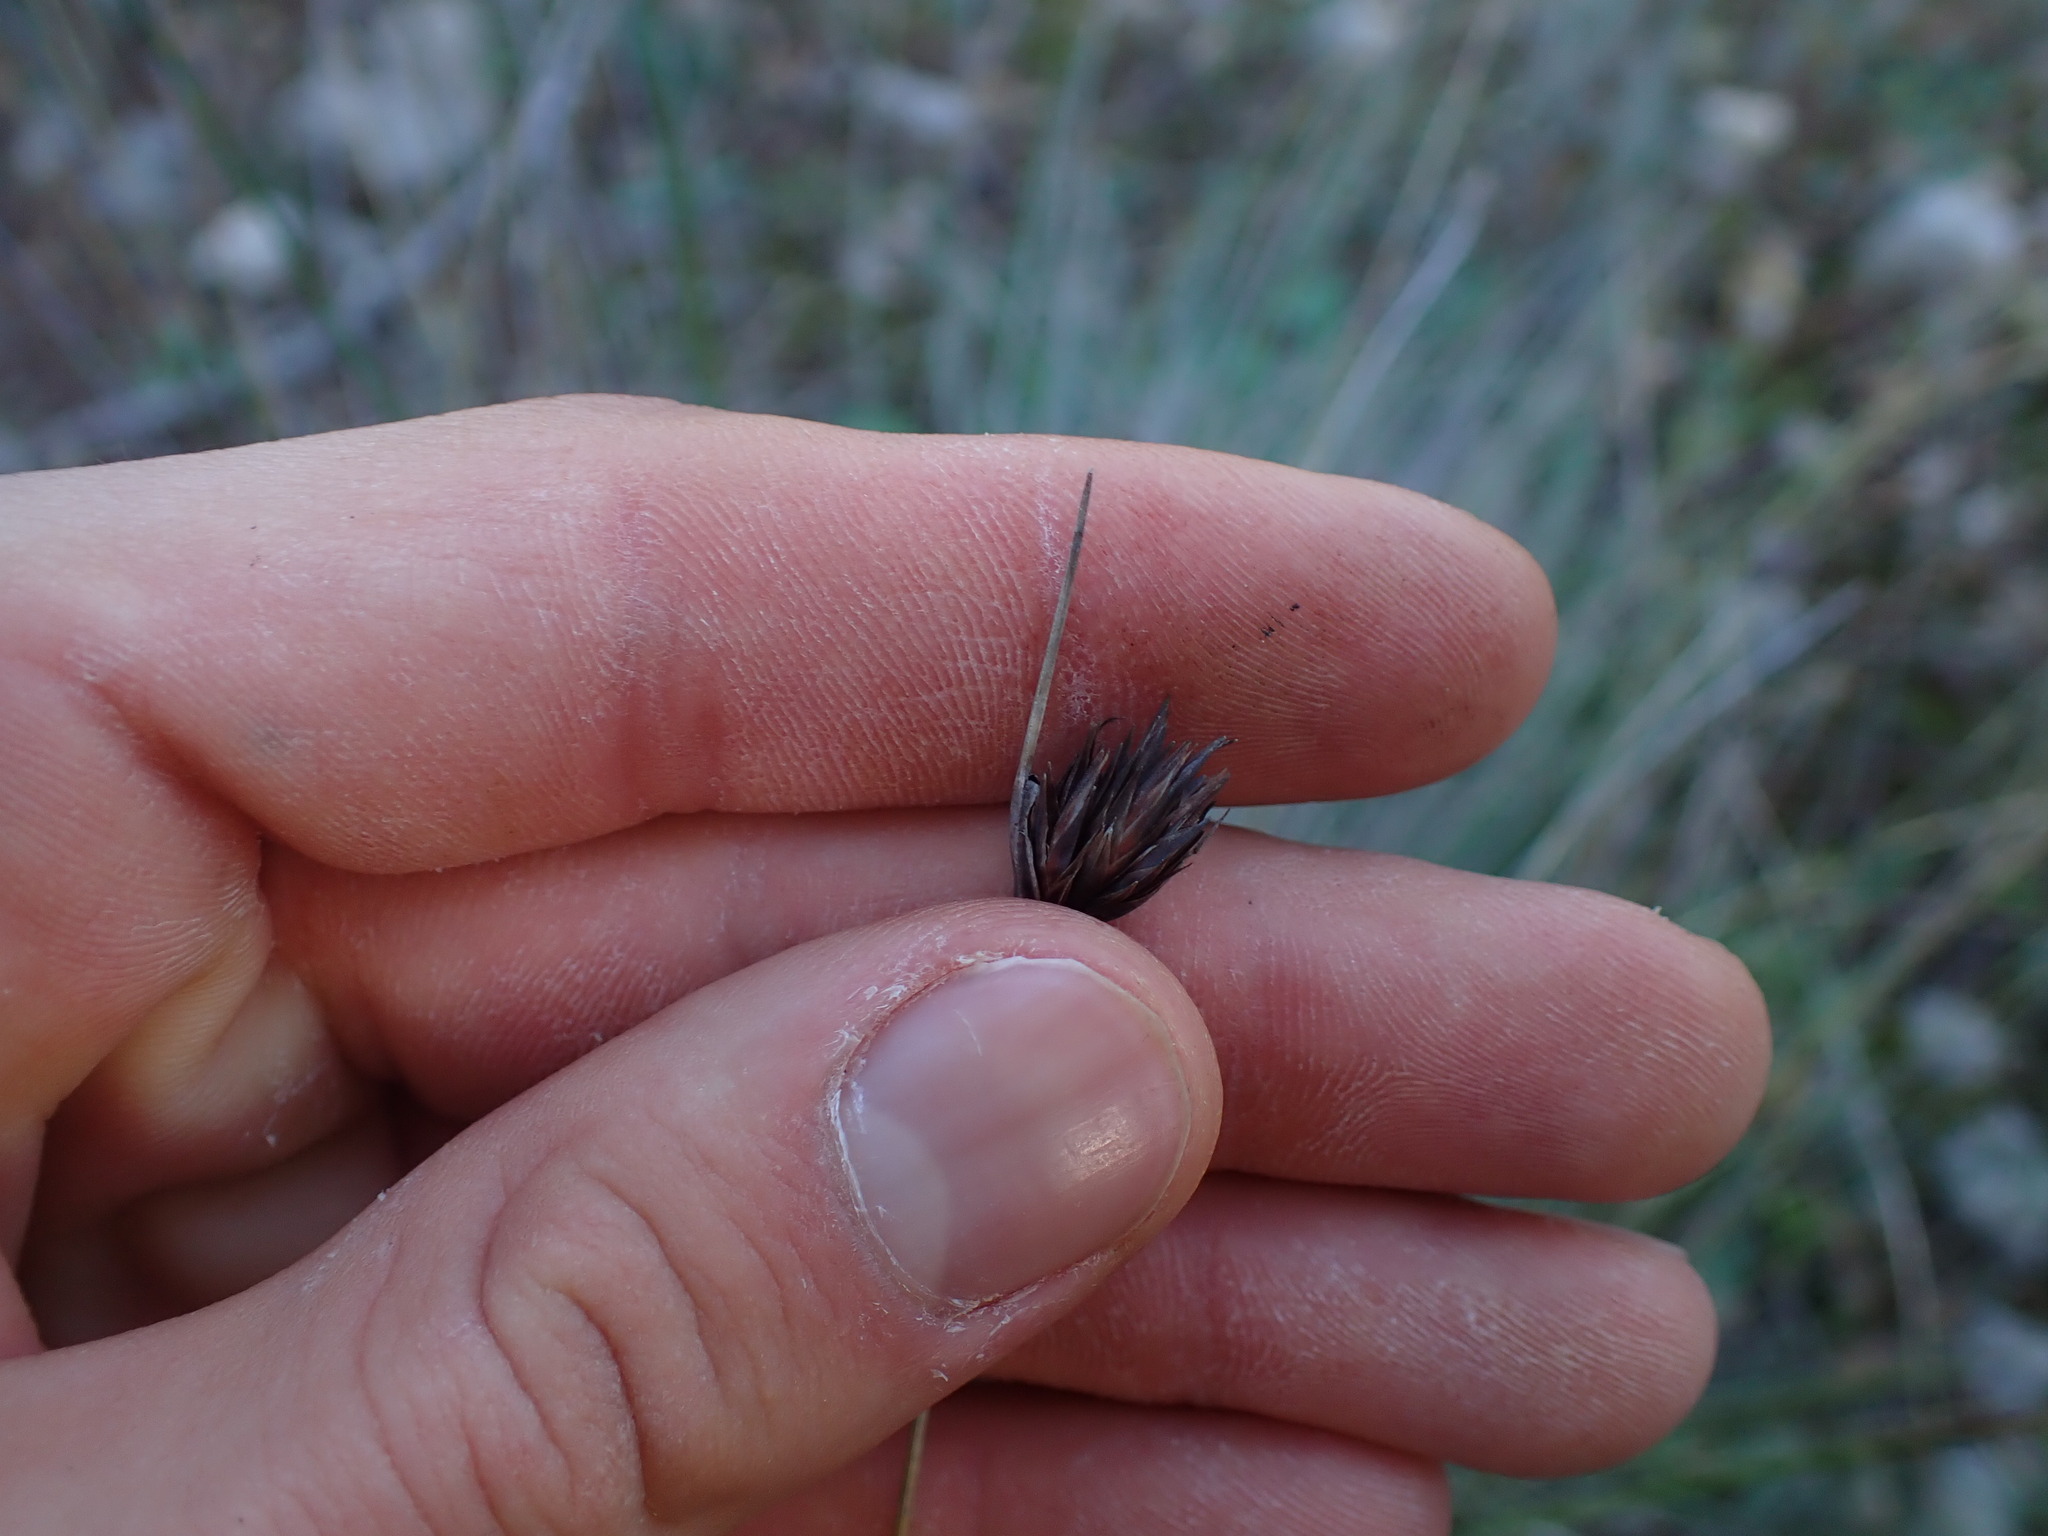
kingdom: Plantae
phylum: Tracheophyta
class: Liliopsida
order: Poales
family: Cyperaceae
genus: Schoenus
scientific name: Schoenus nigricans
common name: Black bog-rush
